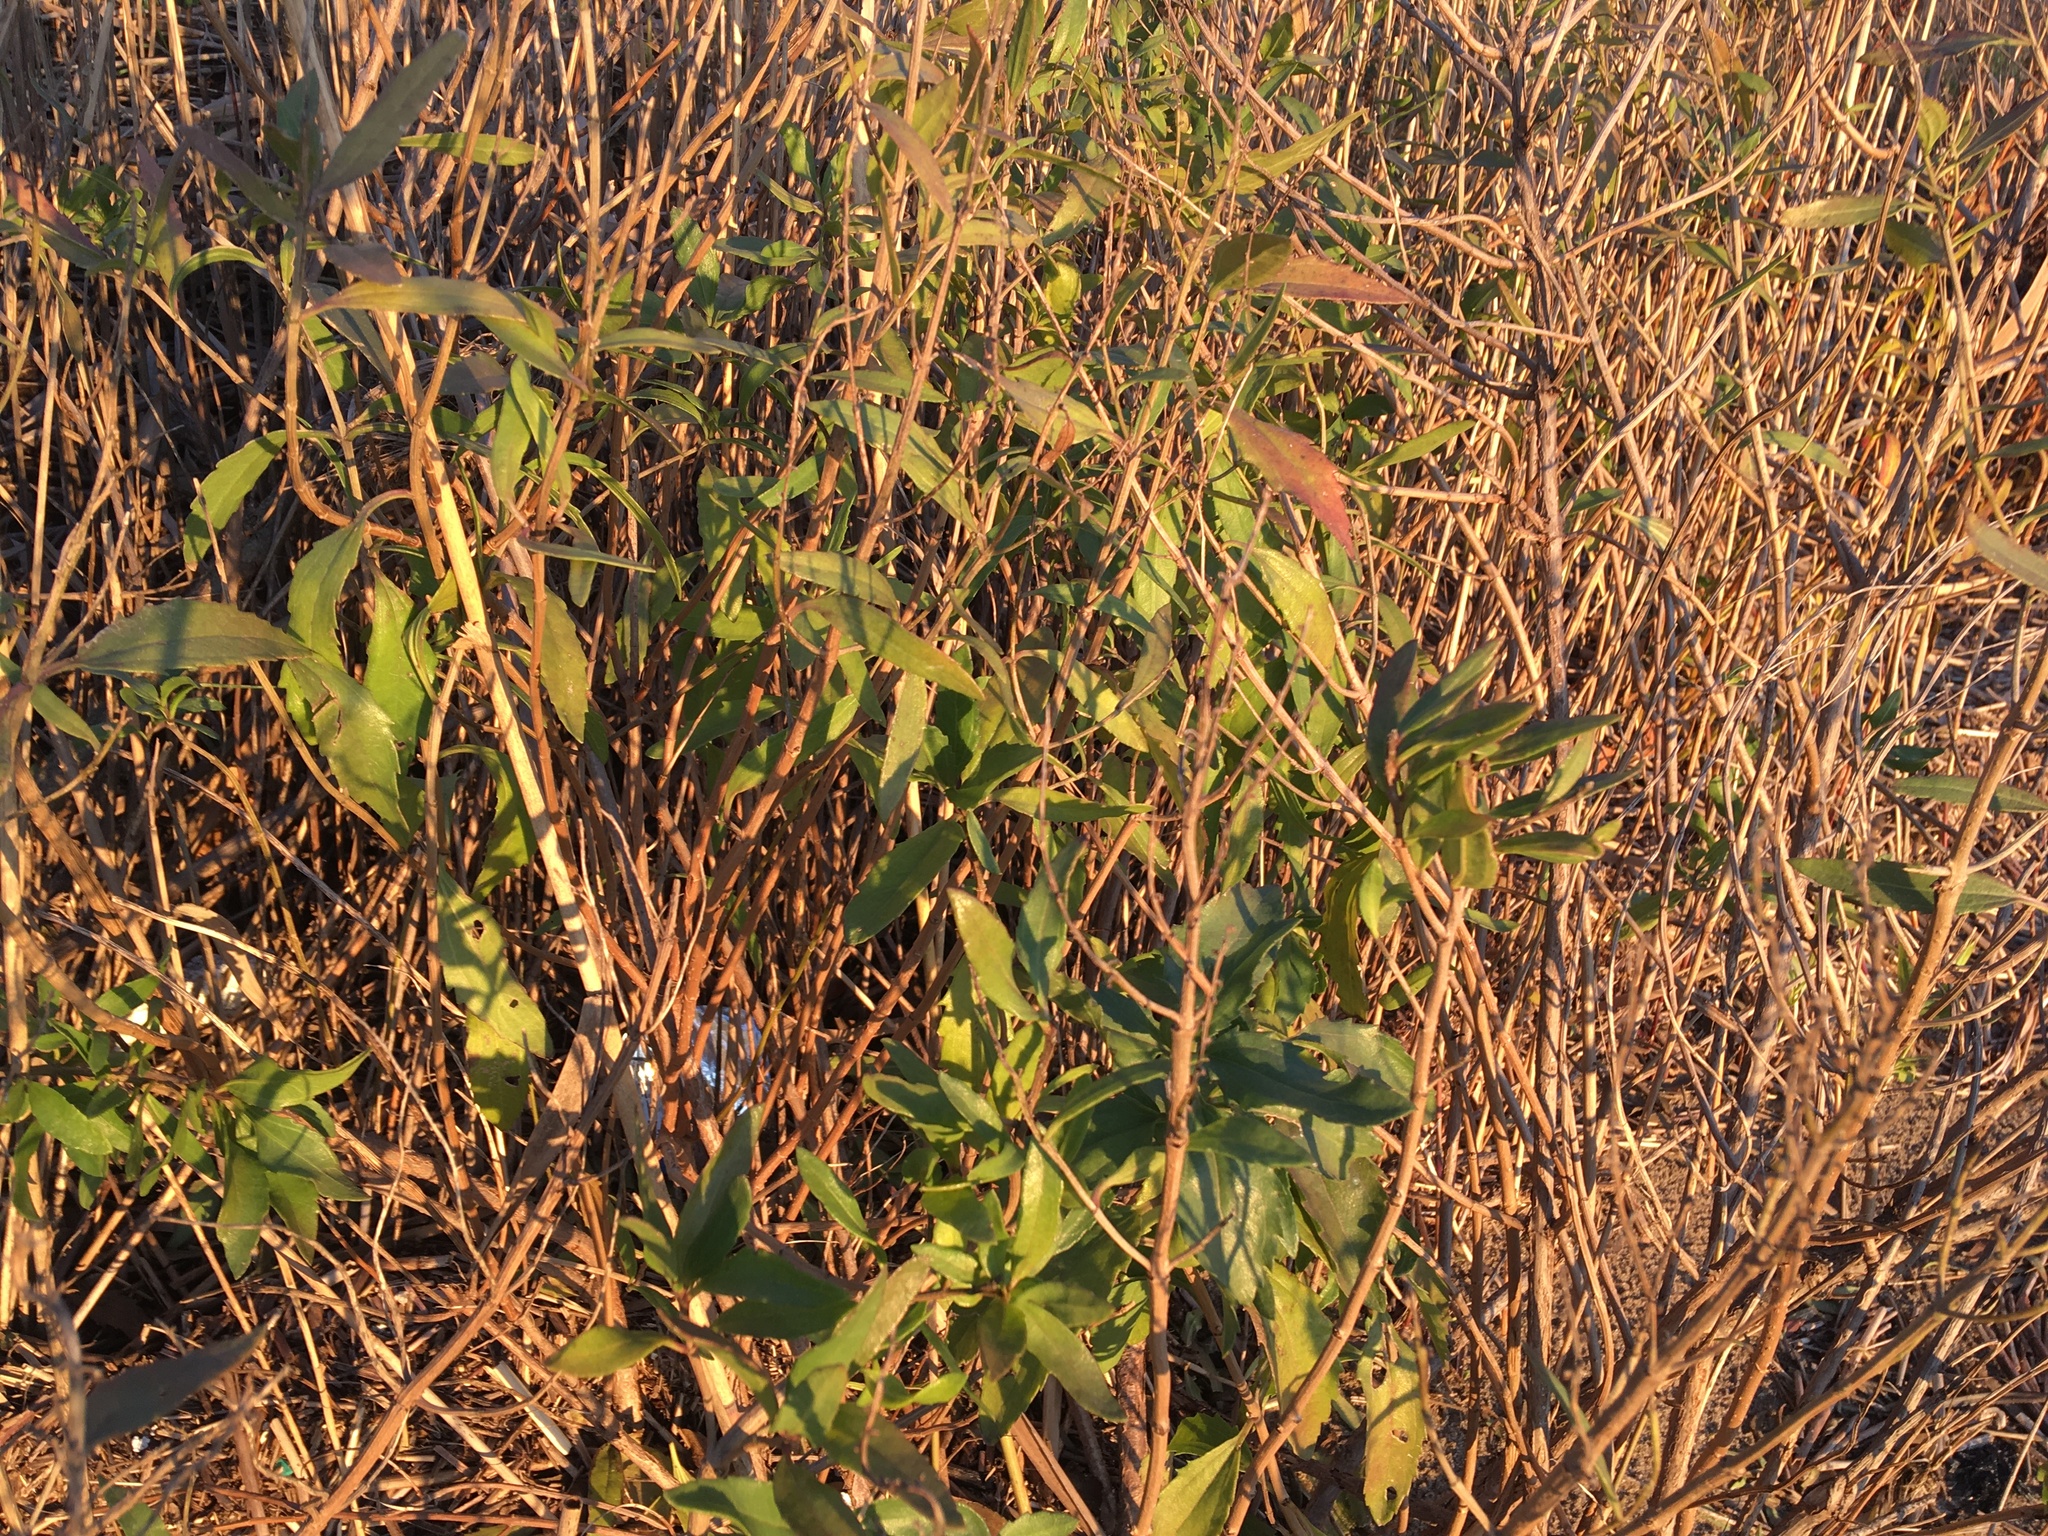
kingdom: Plantae
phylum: Tracheophyta
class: Magnoliopsida
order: Asterales
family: Asteraceae
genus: Iva
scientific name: Iva frutescens
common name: Big-leaved marsh-elder
